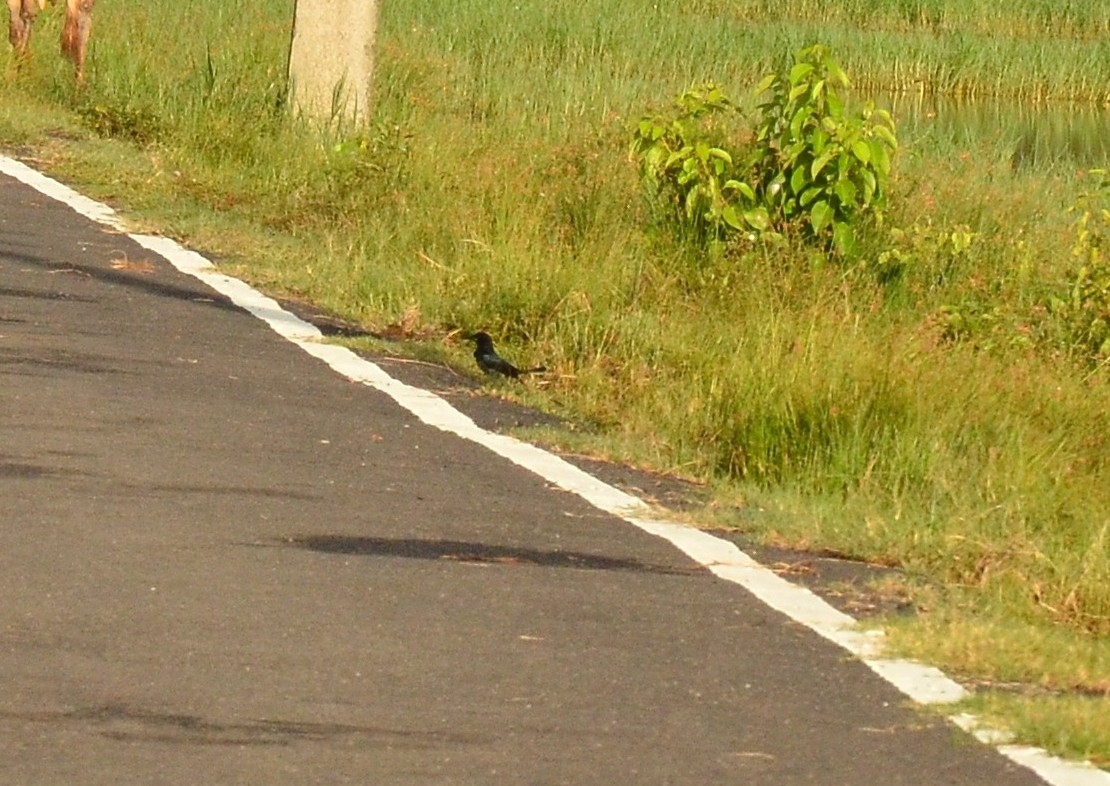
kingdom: Animalia
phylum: Chordata
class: Aves
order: Passeriformes
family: Dicruridae
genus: Dicrurus
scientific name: Dicrurus macrocercus
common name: Black drongo
